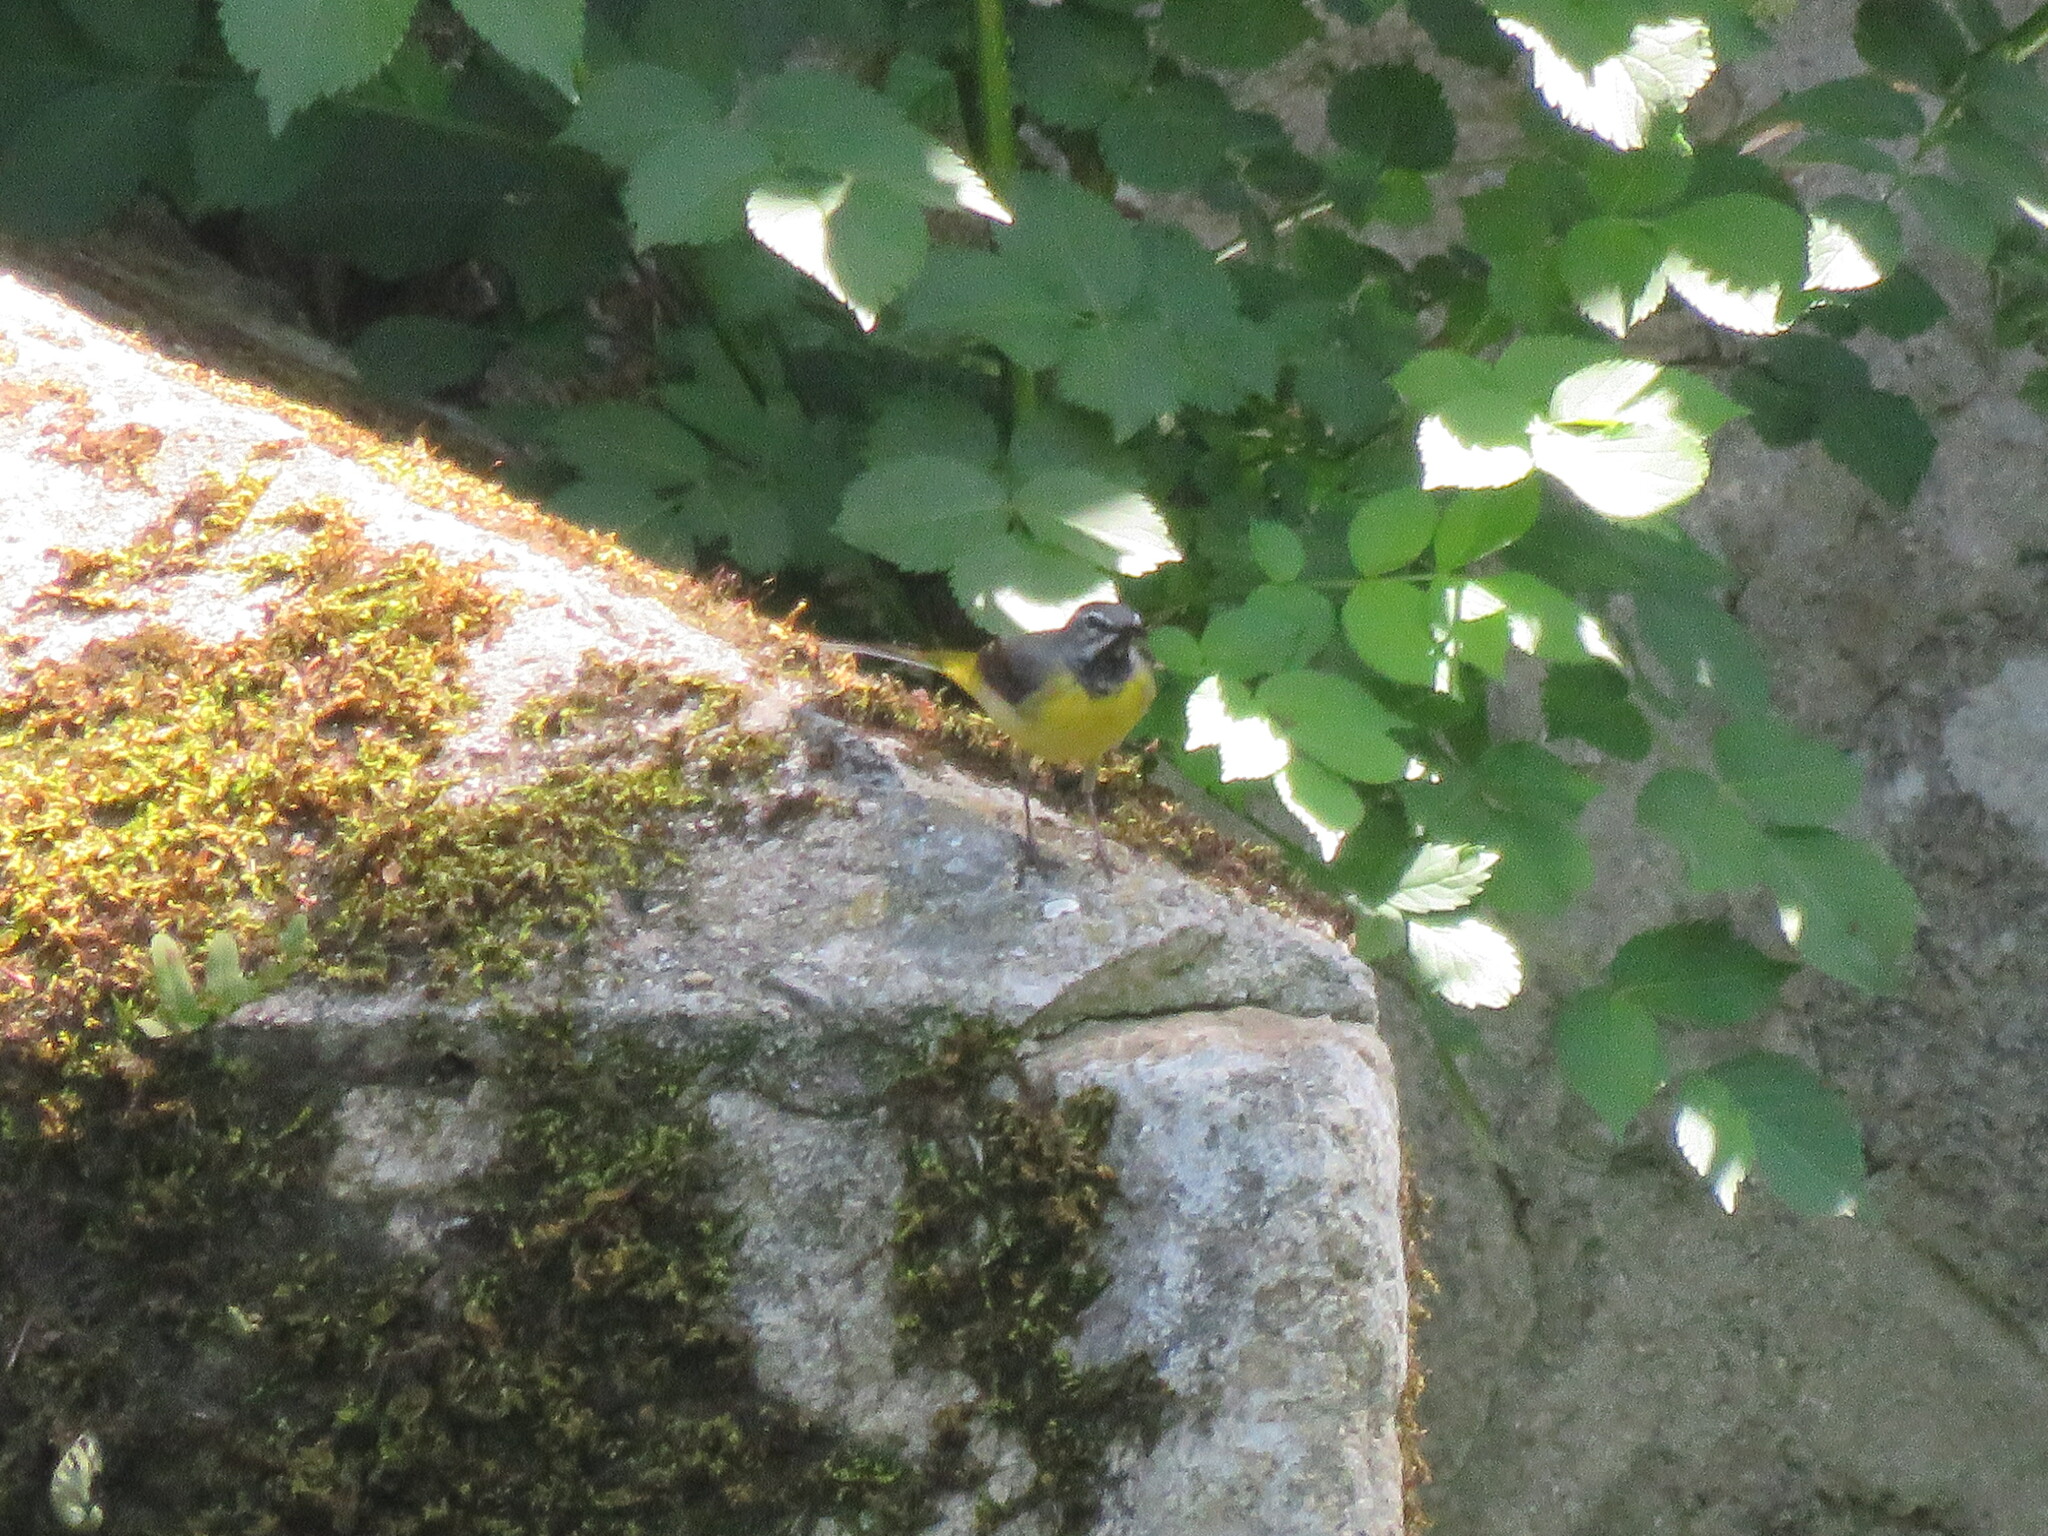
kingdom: Animalia
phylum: Chordata
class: Aves
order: Passeriformes
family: Motacillidae
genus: Motacilla
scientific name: Motacilla cinerea
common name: Grey wagtail
